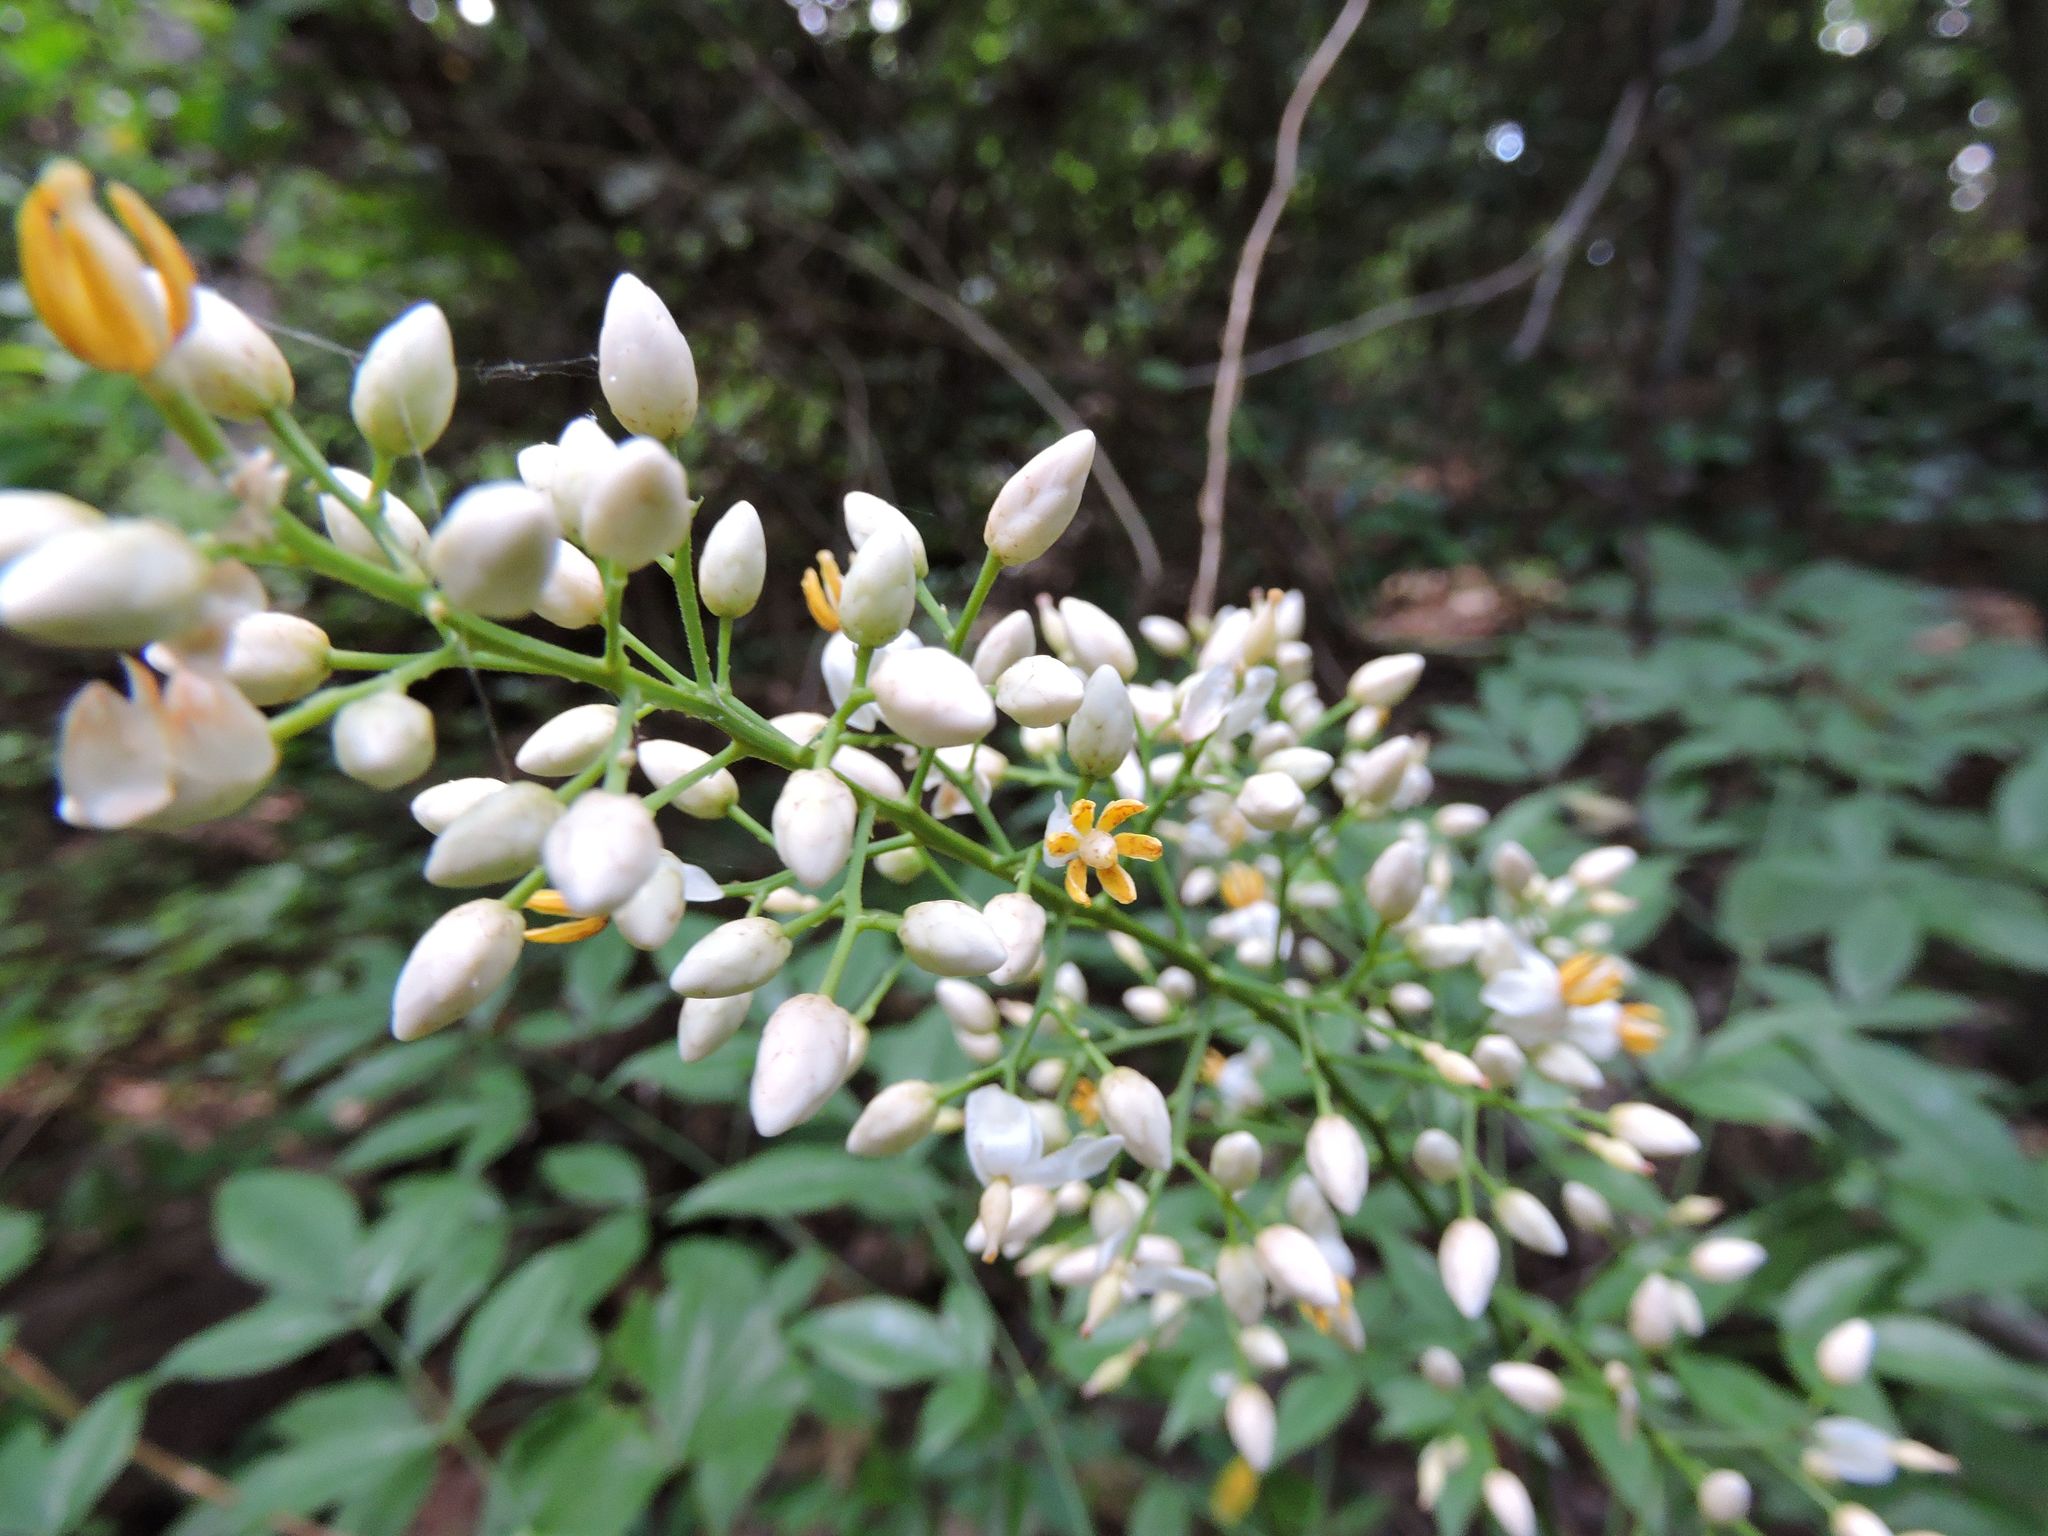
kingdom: Plantae
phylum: Tracheophyta
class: Magnoliopsida
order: Ranunculales
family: Berberidaceae
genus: Nandina
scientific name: Nandina domestica
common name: Sacred bamboo
